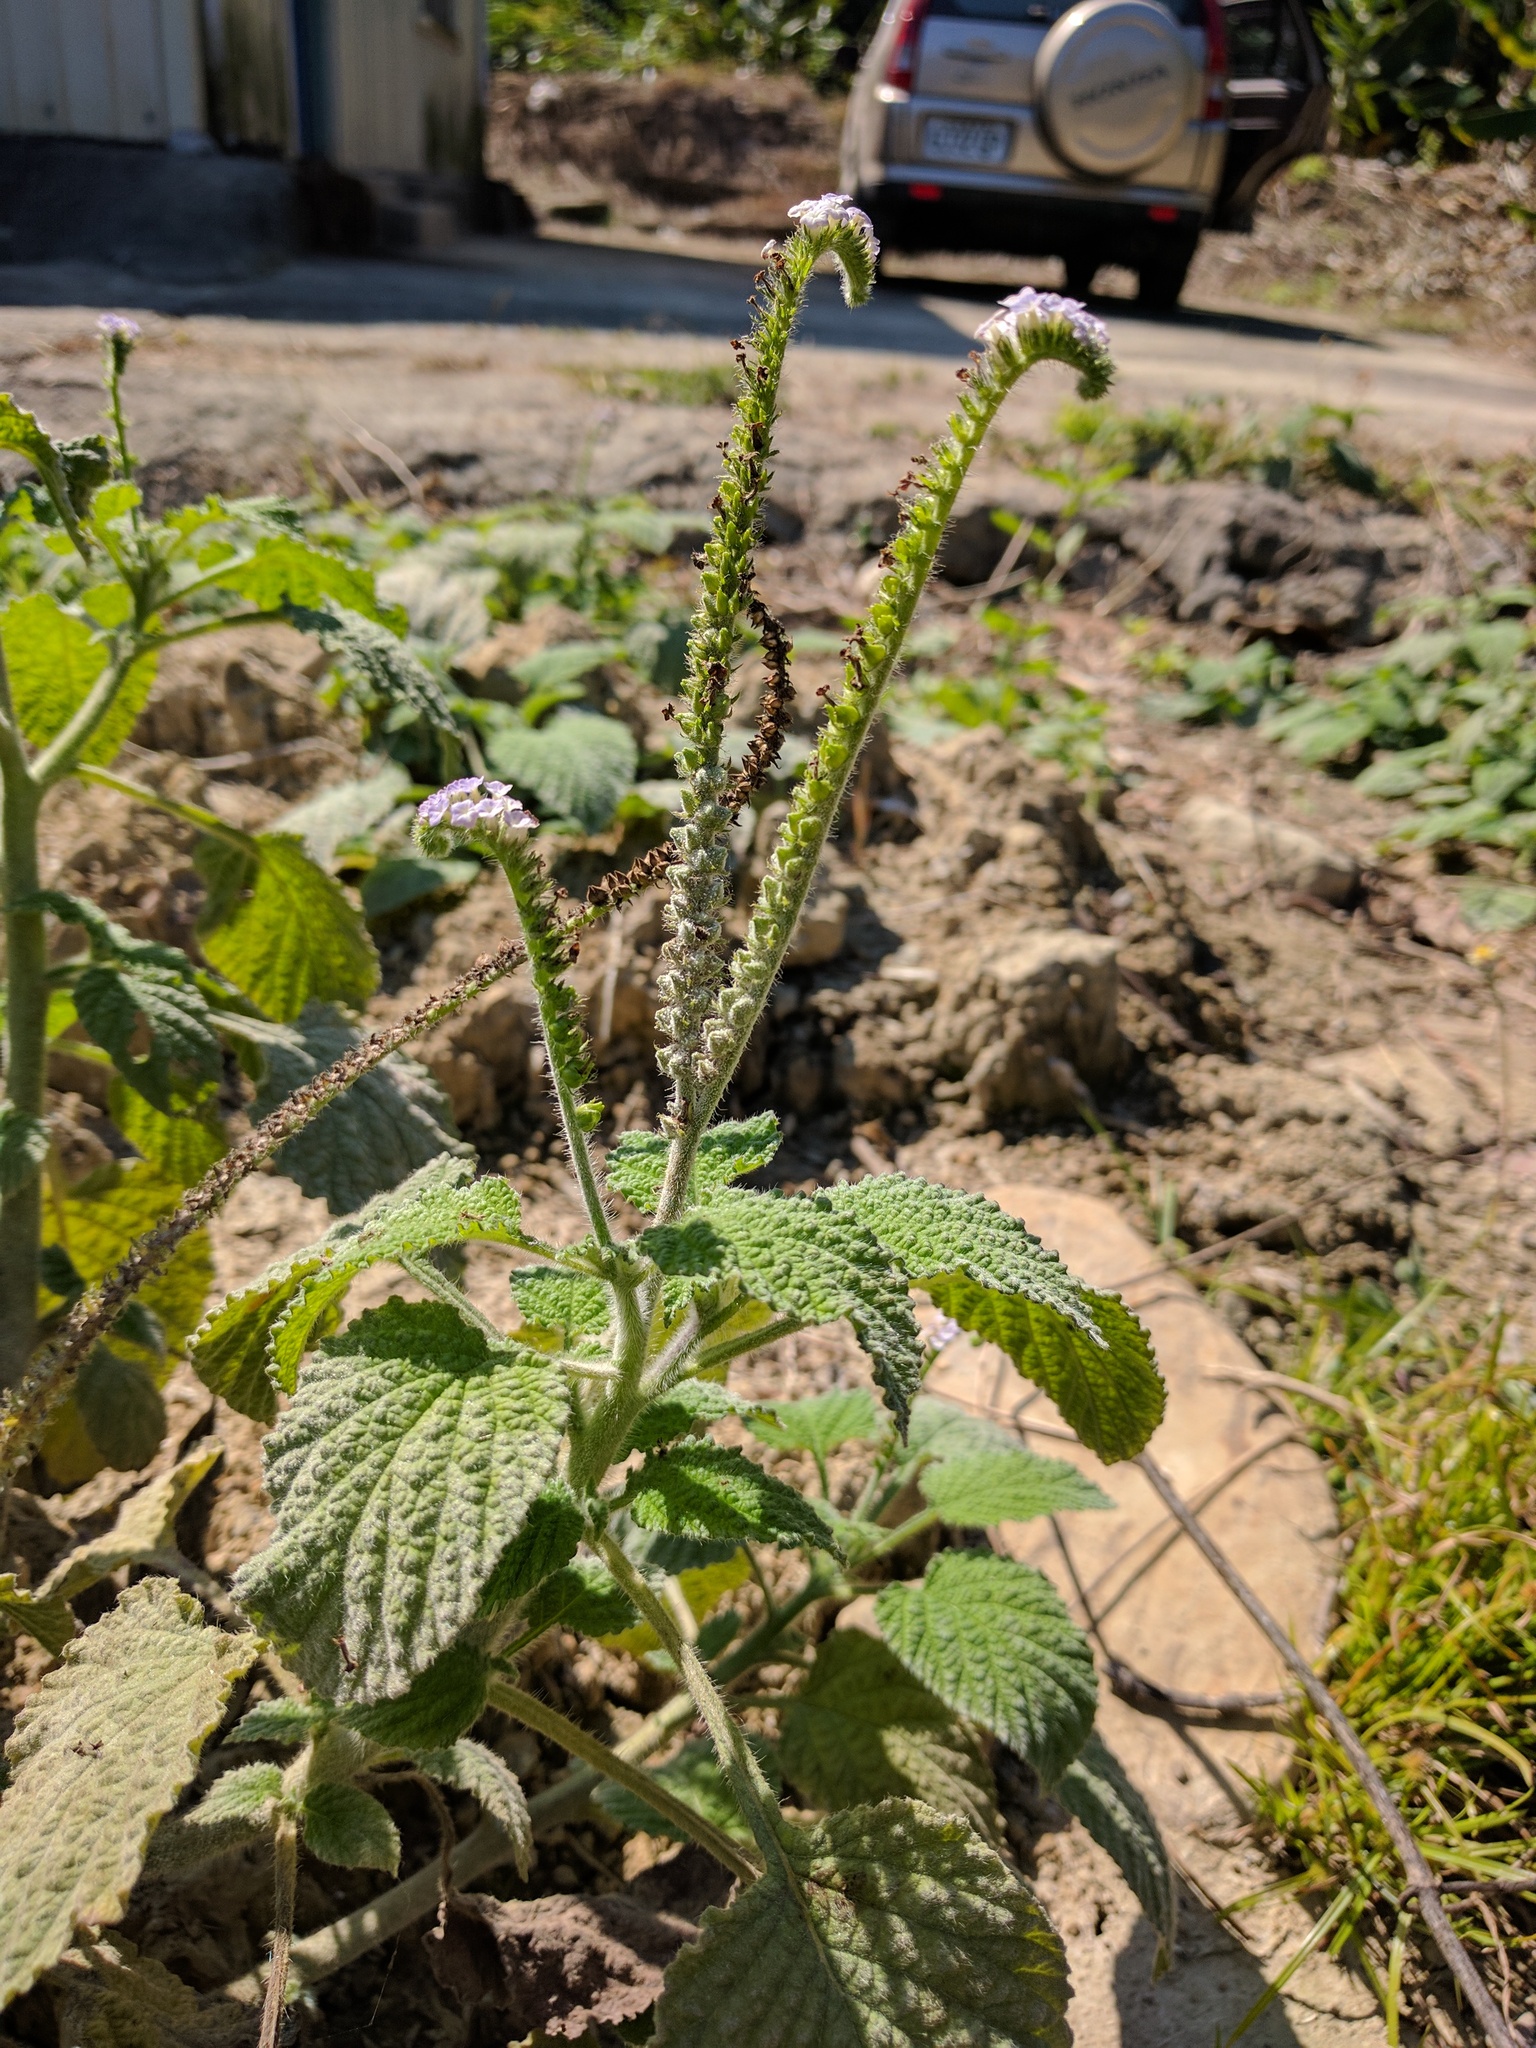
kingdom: Plantae
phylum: Tracheophyta
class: Magnoliopsida
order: Boraginales
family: Heliotropiaceae
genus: Heliotropium
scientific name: Heliotropium indicum
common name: Indian heliotrope
